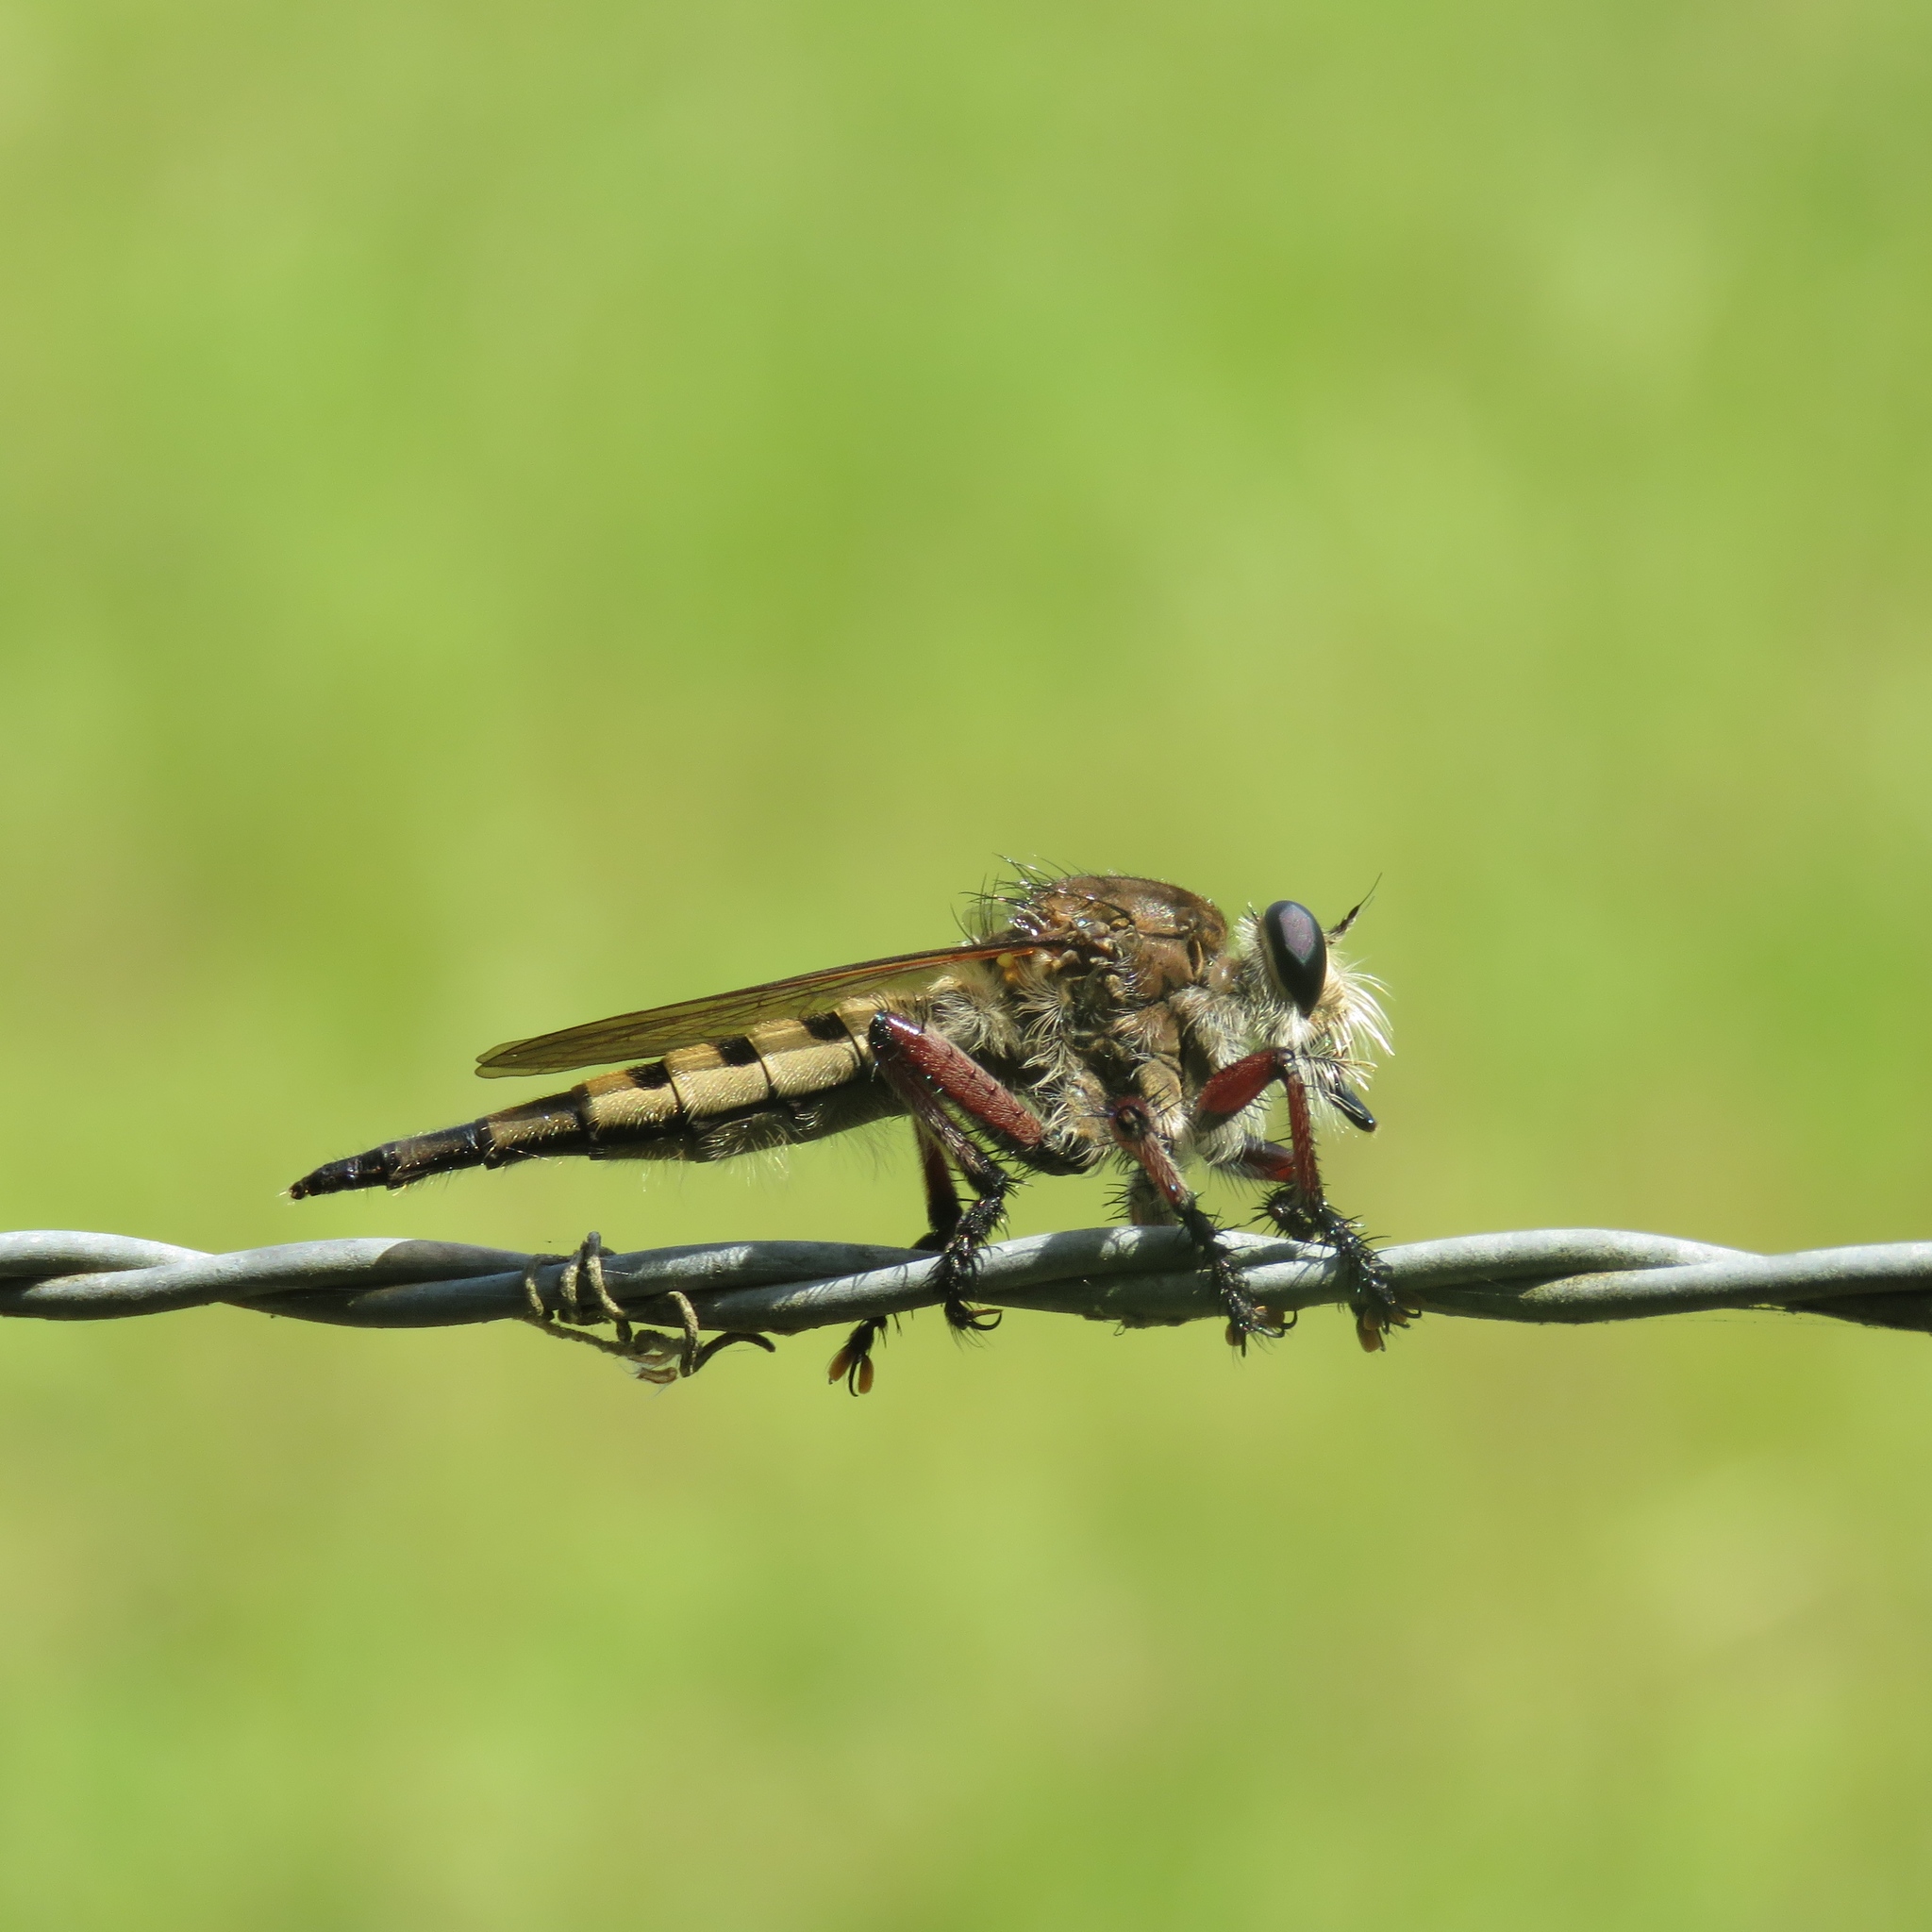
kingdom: Animalia
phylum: Arthropoda
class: Insecta
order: Diptera
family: Asilidae
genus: Promachus
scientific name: Promachus hinei
